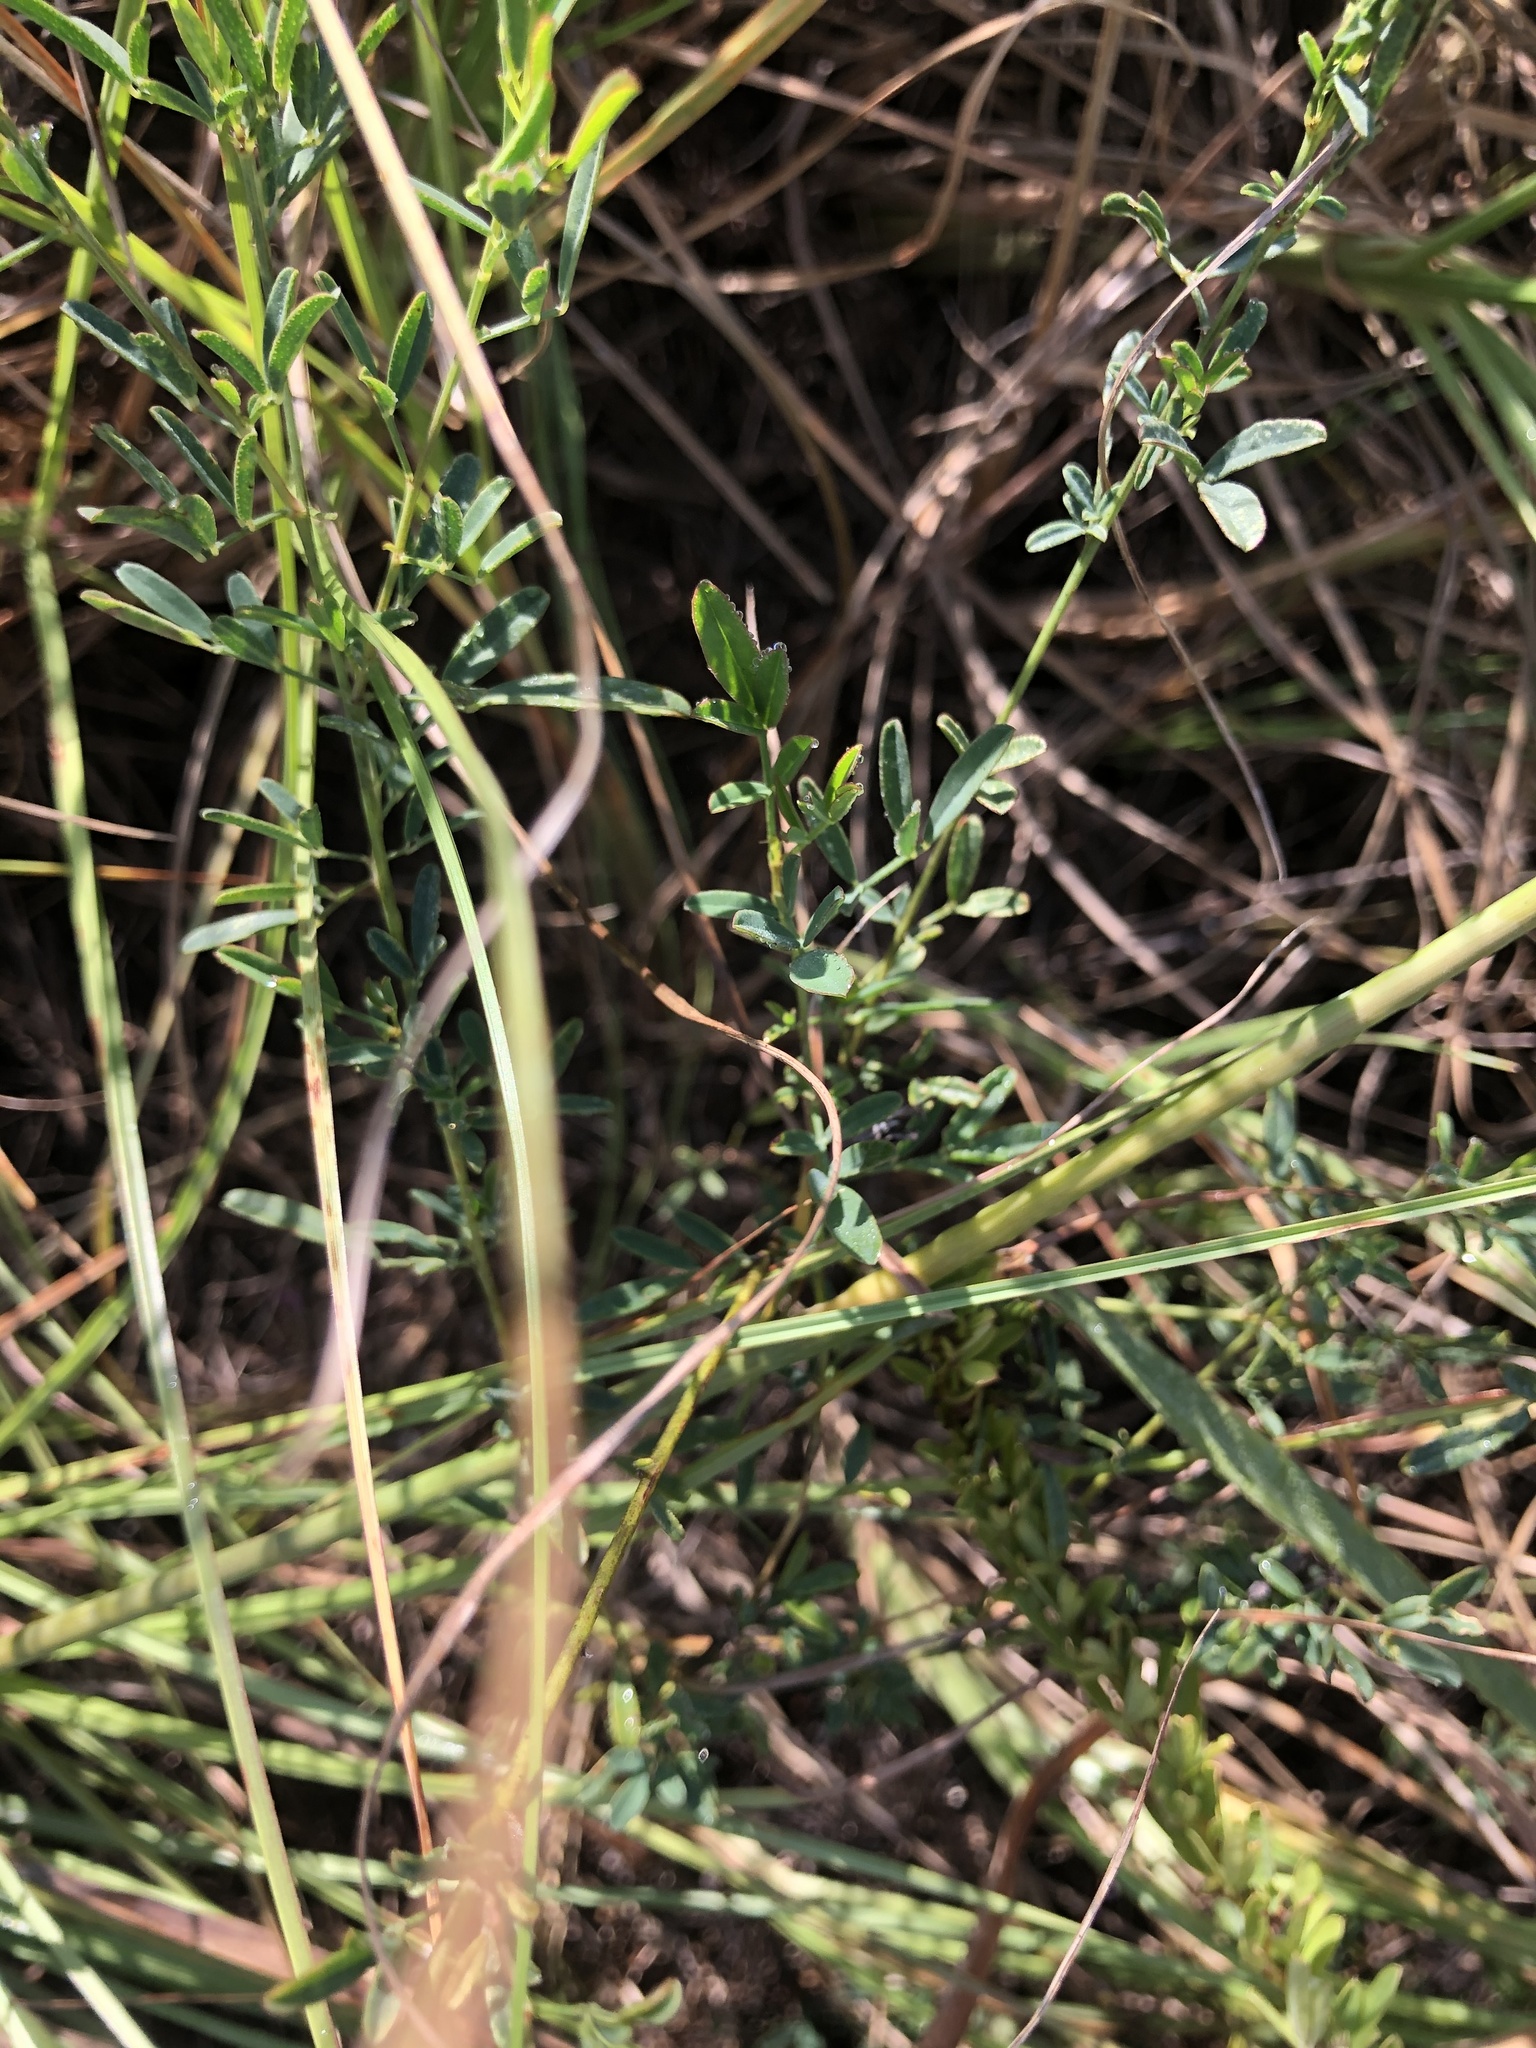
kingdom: Plantae
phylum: Tracheophyta
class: Magnoliopsida
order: Fabales
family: Fabaceae
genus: Dalea
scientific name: Dalea candida
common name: White prairie-clover
